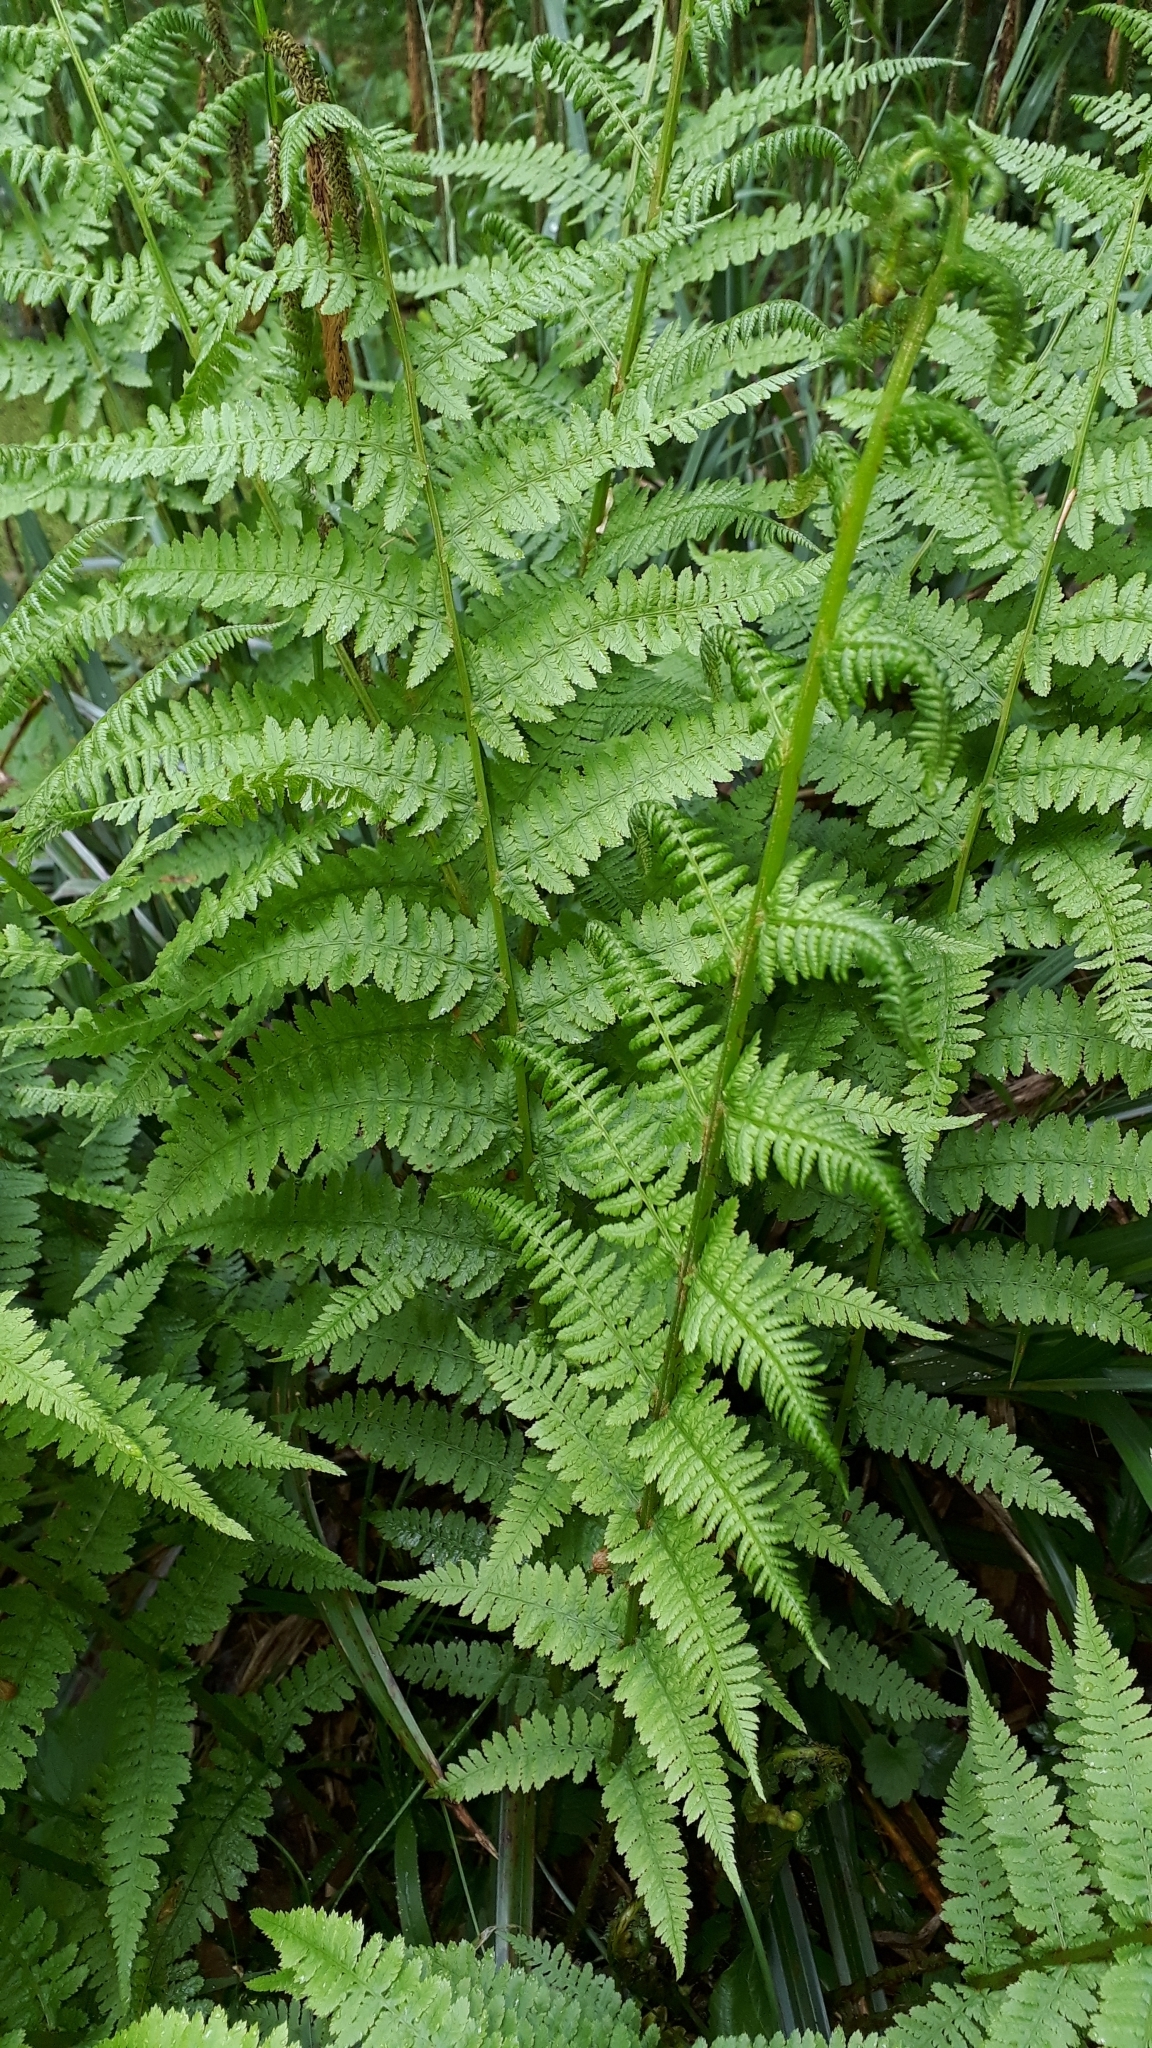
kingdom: Plantae
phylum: Tracheophyta
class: Polypodiopsida
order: Polypodiales
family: Athyriaceae
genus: Athyrium
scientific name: Athyrium filix-femina
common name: Lady fern
